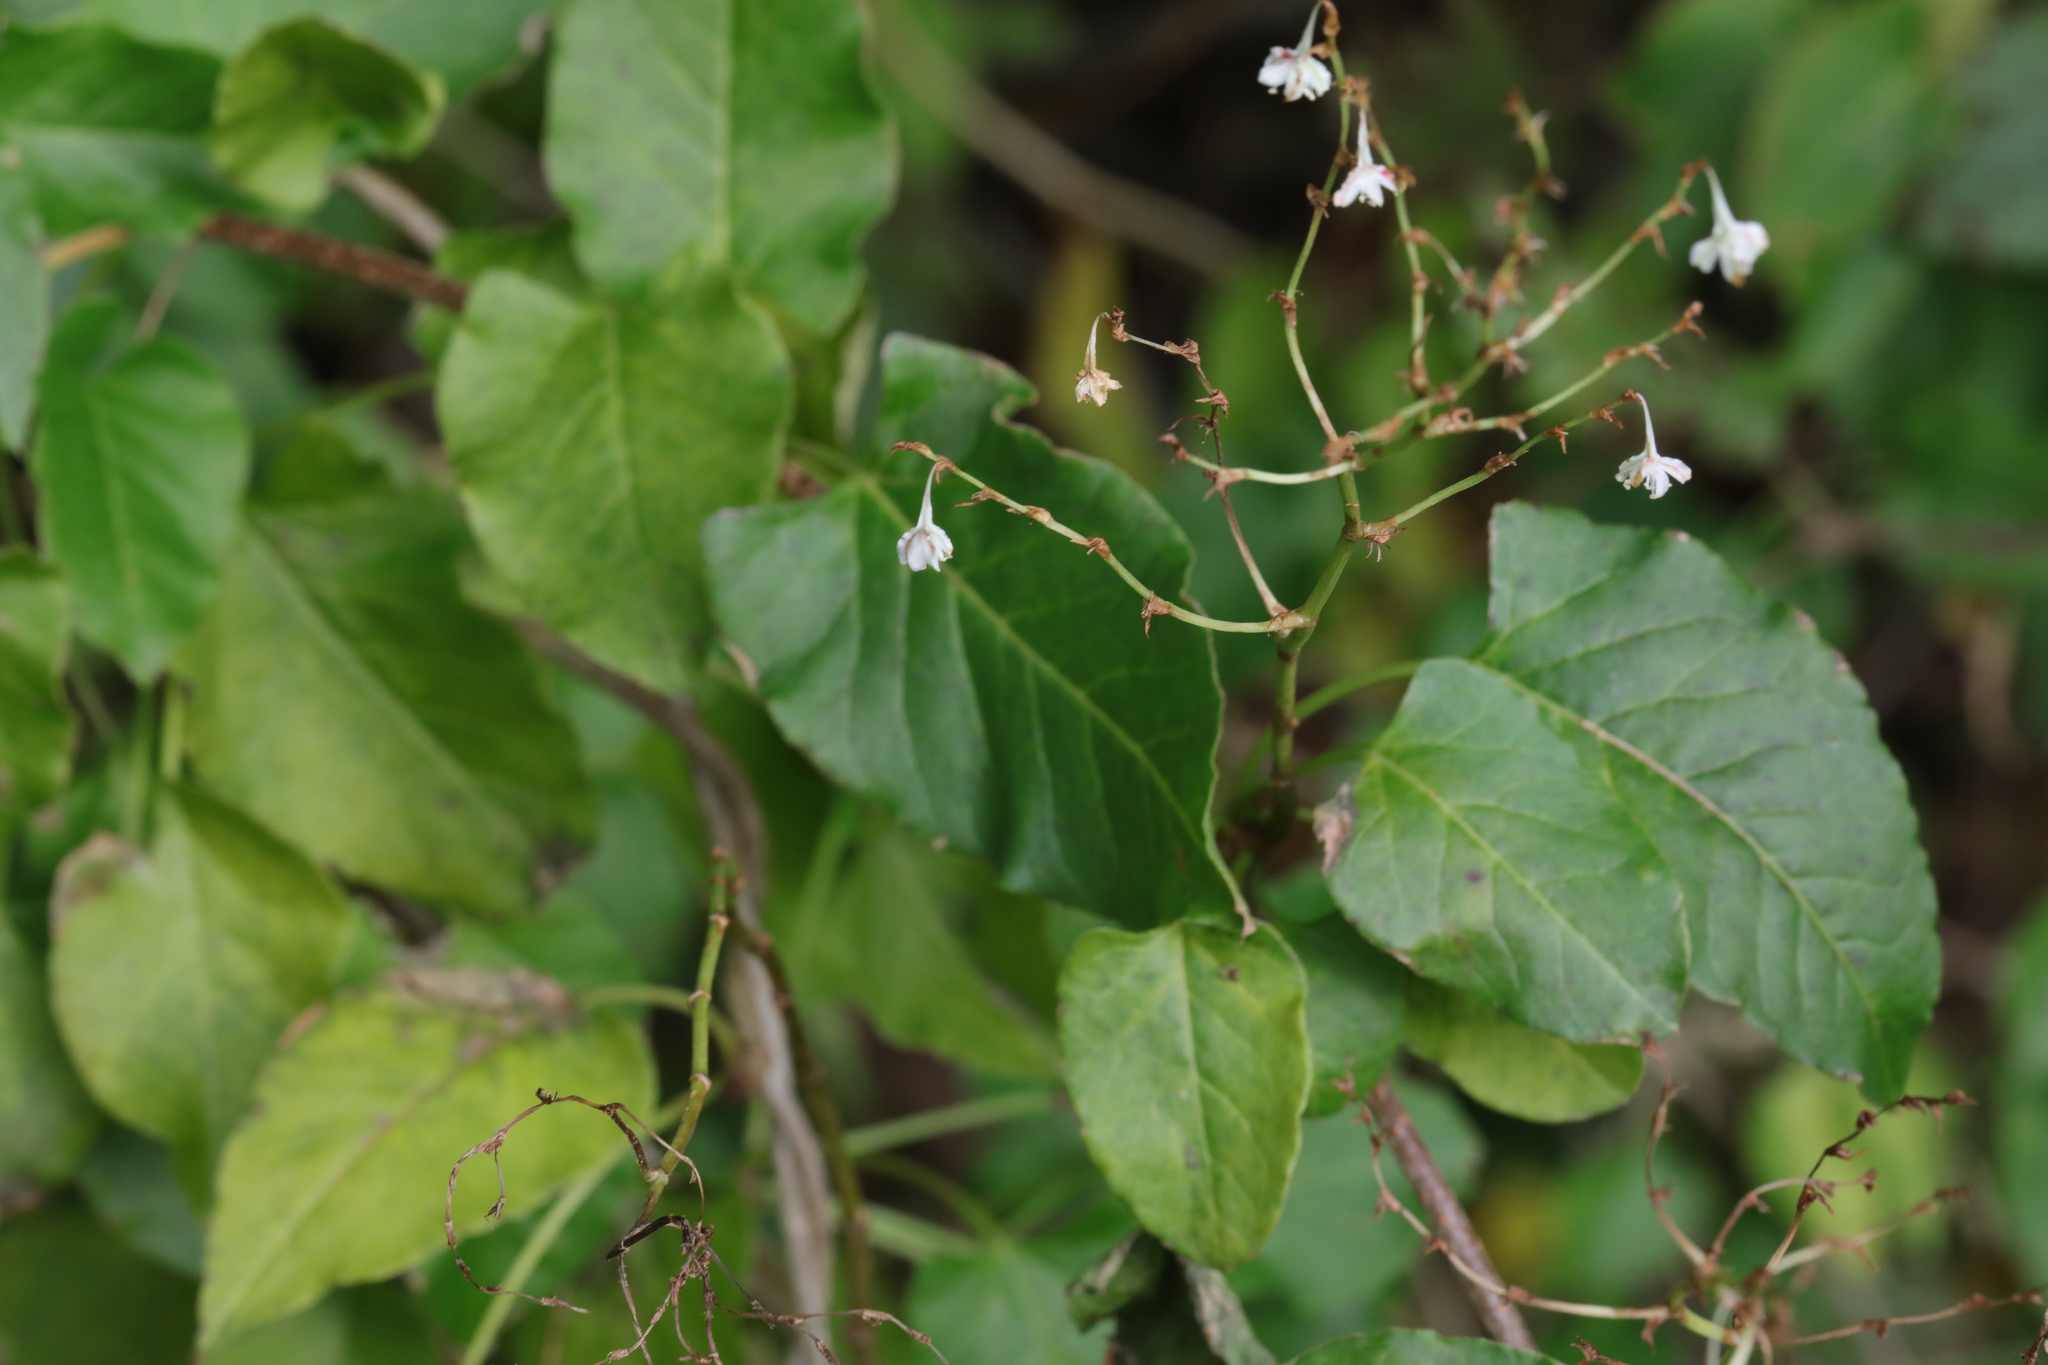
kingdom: Plantae
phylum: Tracheophyta
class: Magnoliopsida
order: Caryophyllales
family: Polygonaceae
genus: Fallopia
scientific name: Fallopia baldschuanica
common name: Russian-vine
